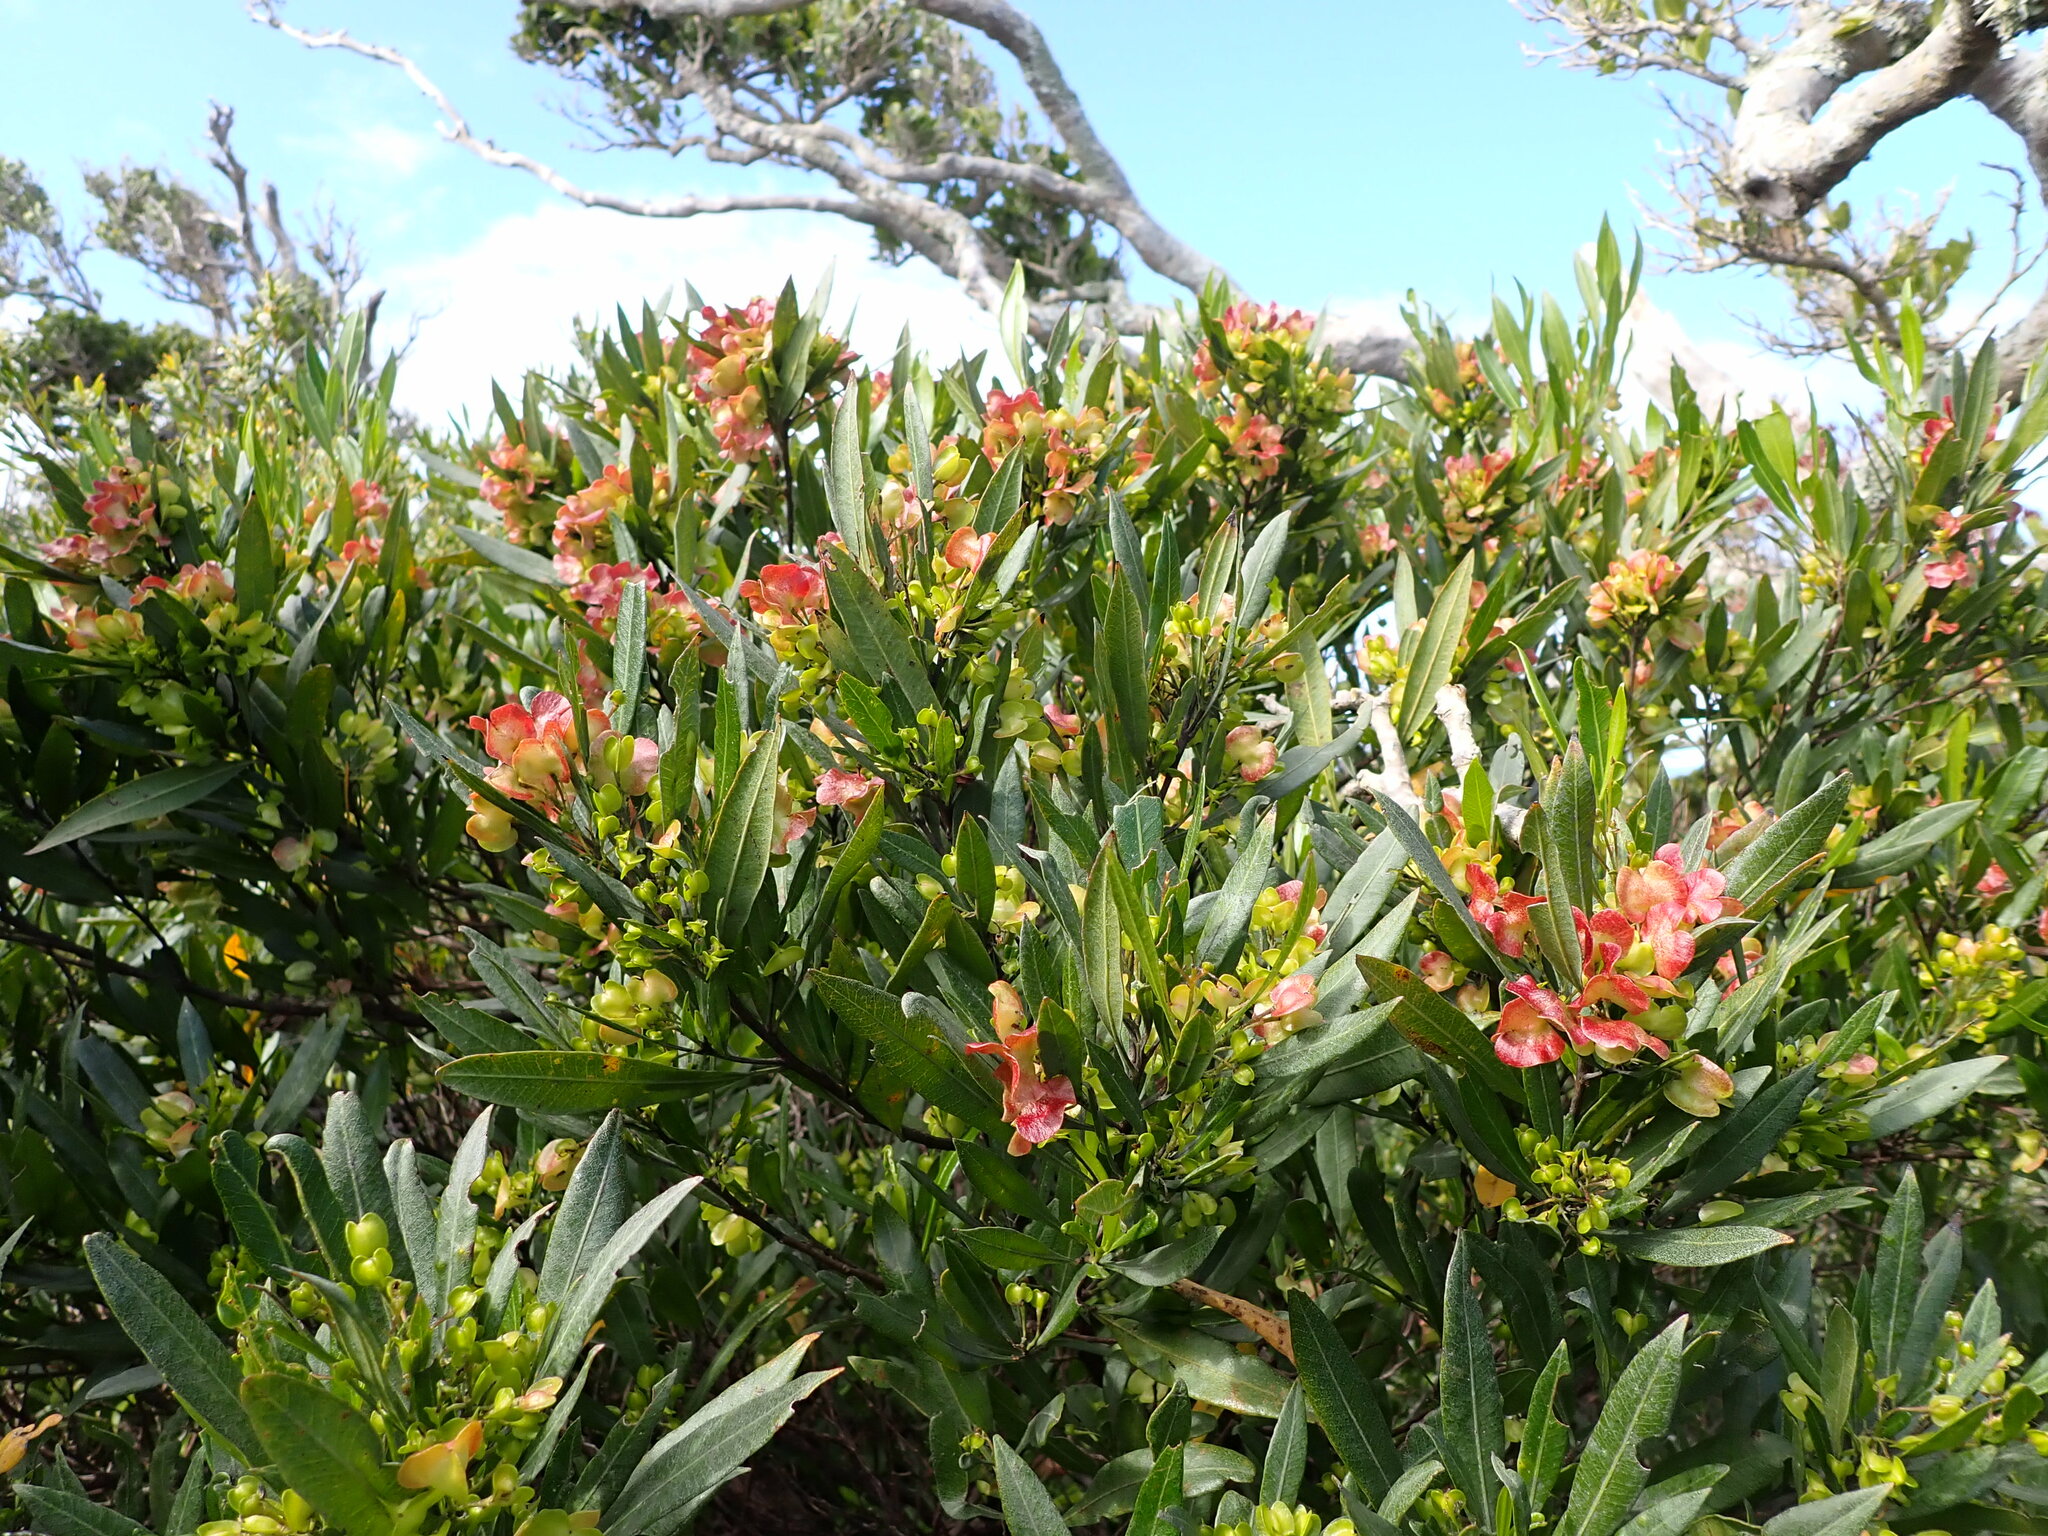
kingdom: Plantae
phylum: Tracheophyta
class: Magnoliopsida
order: Sapindales
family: Sapindaceae
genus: Dodonaea
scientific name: Dodonaea viscosa
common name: Hopbush
